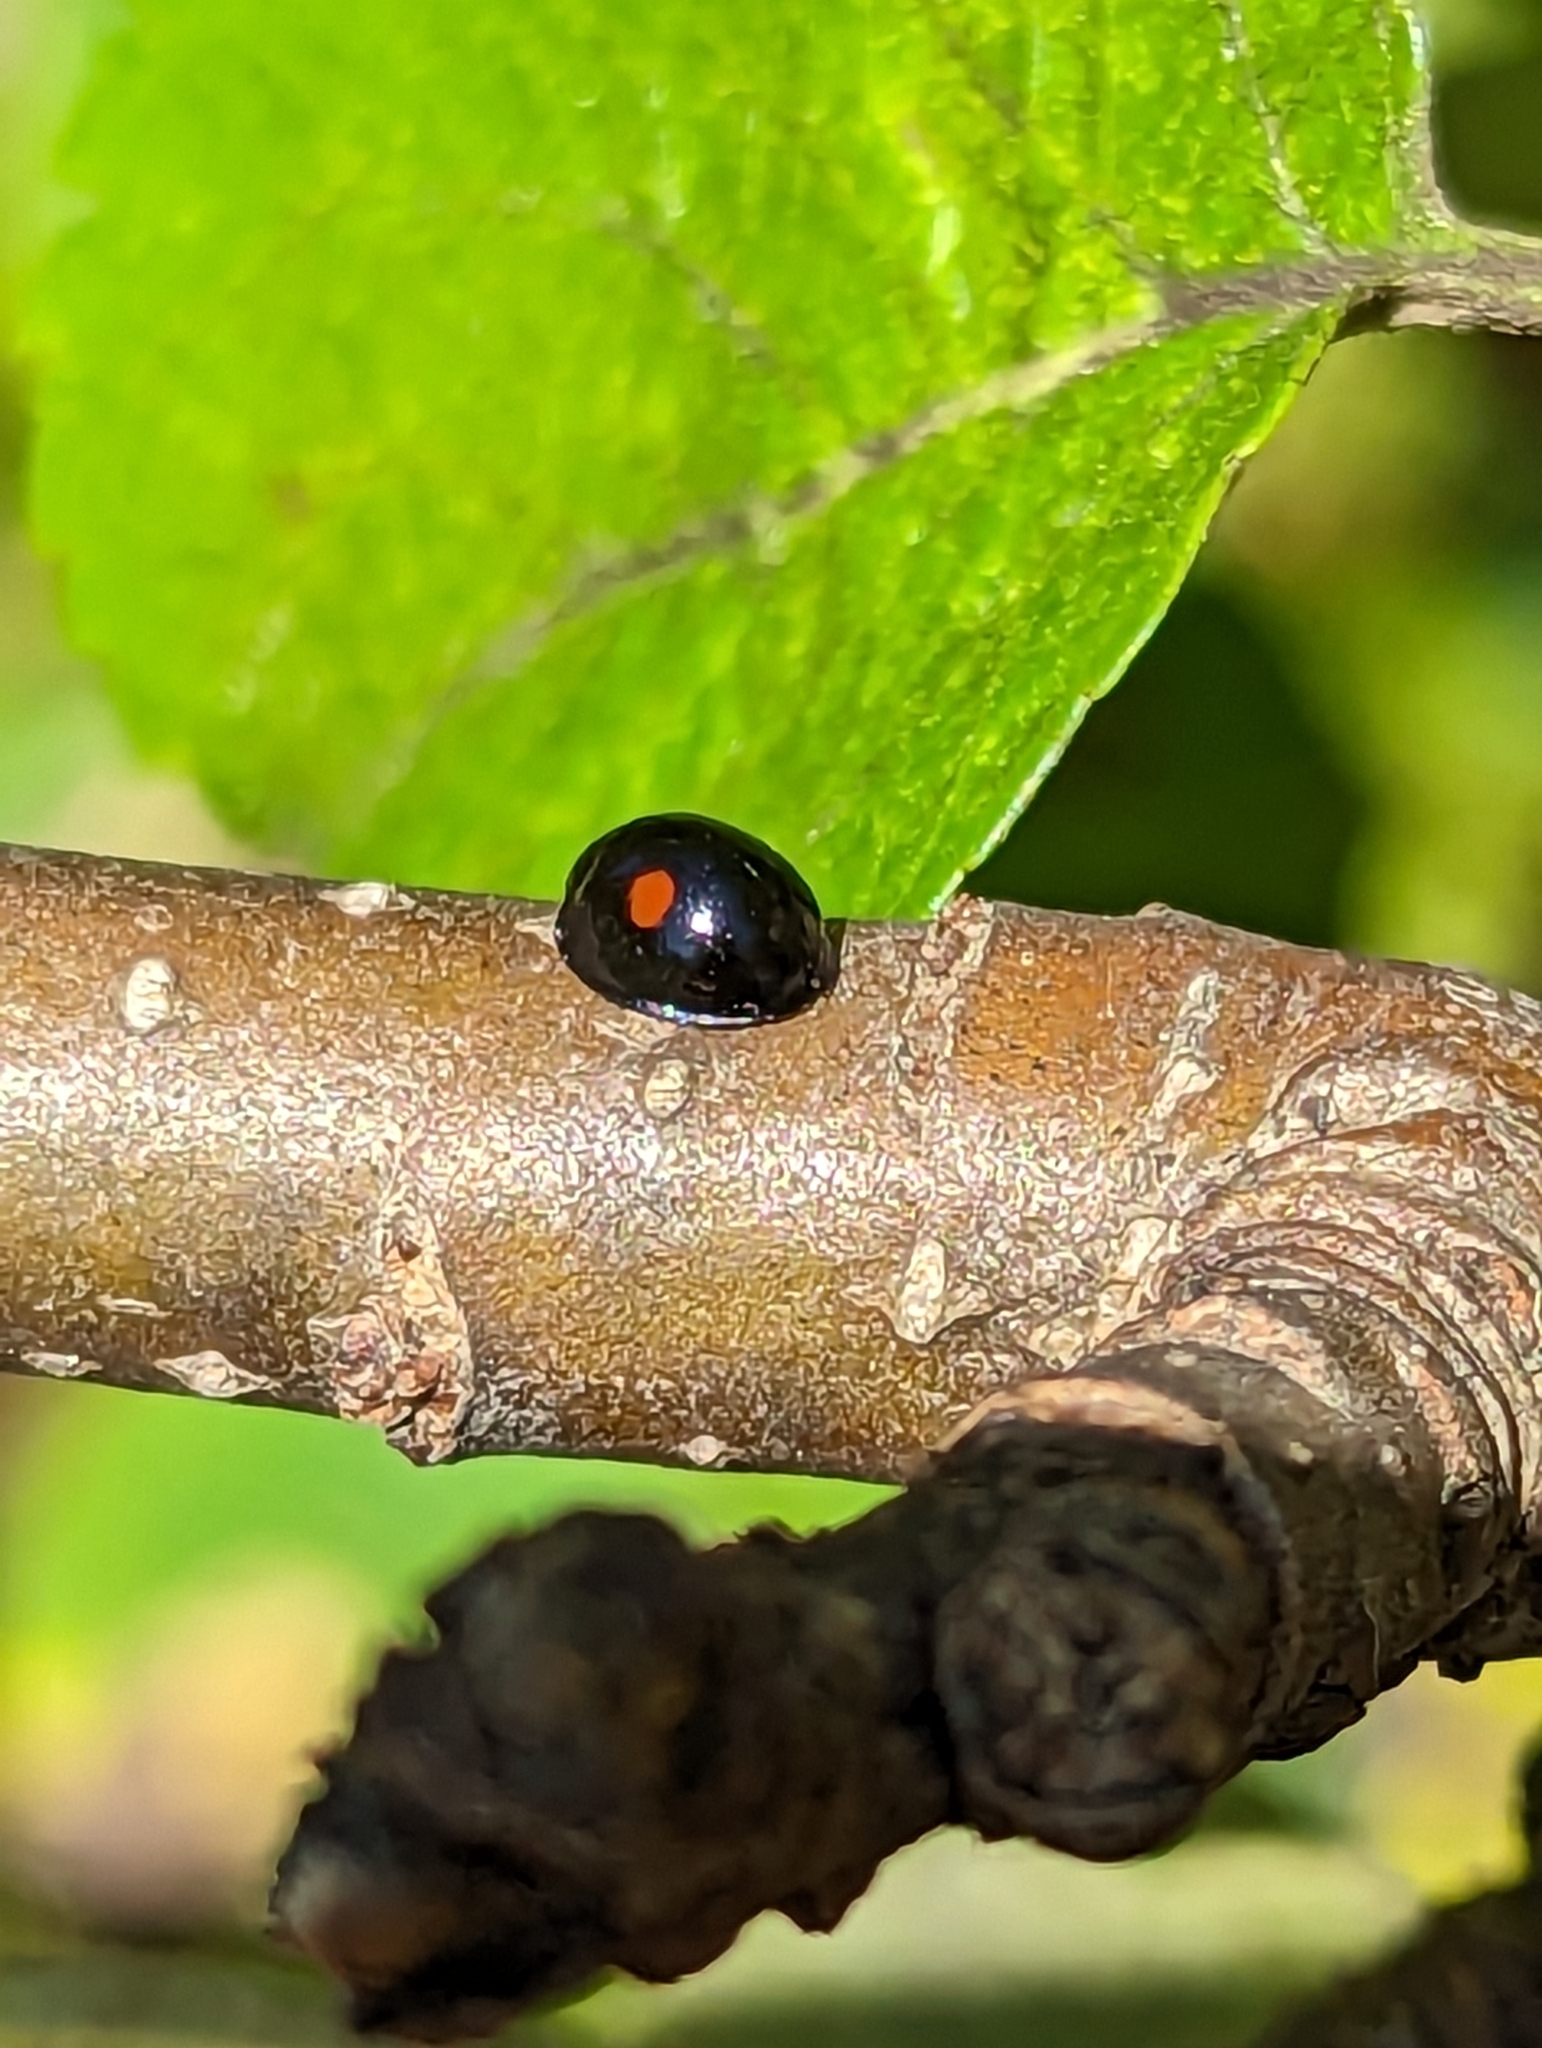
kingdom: Animalia
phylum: Arthropoda
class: Insecta
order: Coleoptera
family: Coccinellidae
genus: Chilocorus
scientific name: Chilocorus stigma
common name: Twicestabbed lady beetle
